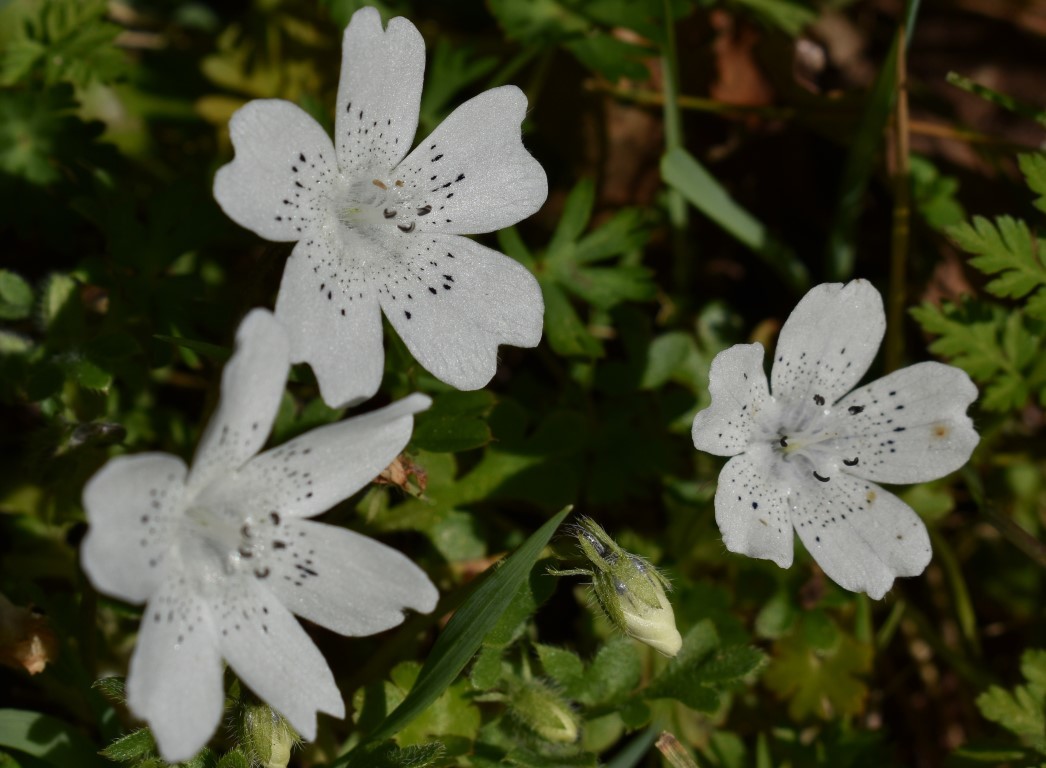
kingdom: Plantae
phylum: Tracheophyta
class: Magnoliopsida
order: Boraginales
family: Hydrophyllaceae
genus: Nemophila
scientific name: Nemophila menziesii
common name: Baby's-blue-eyes
